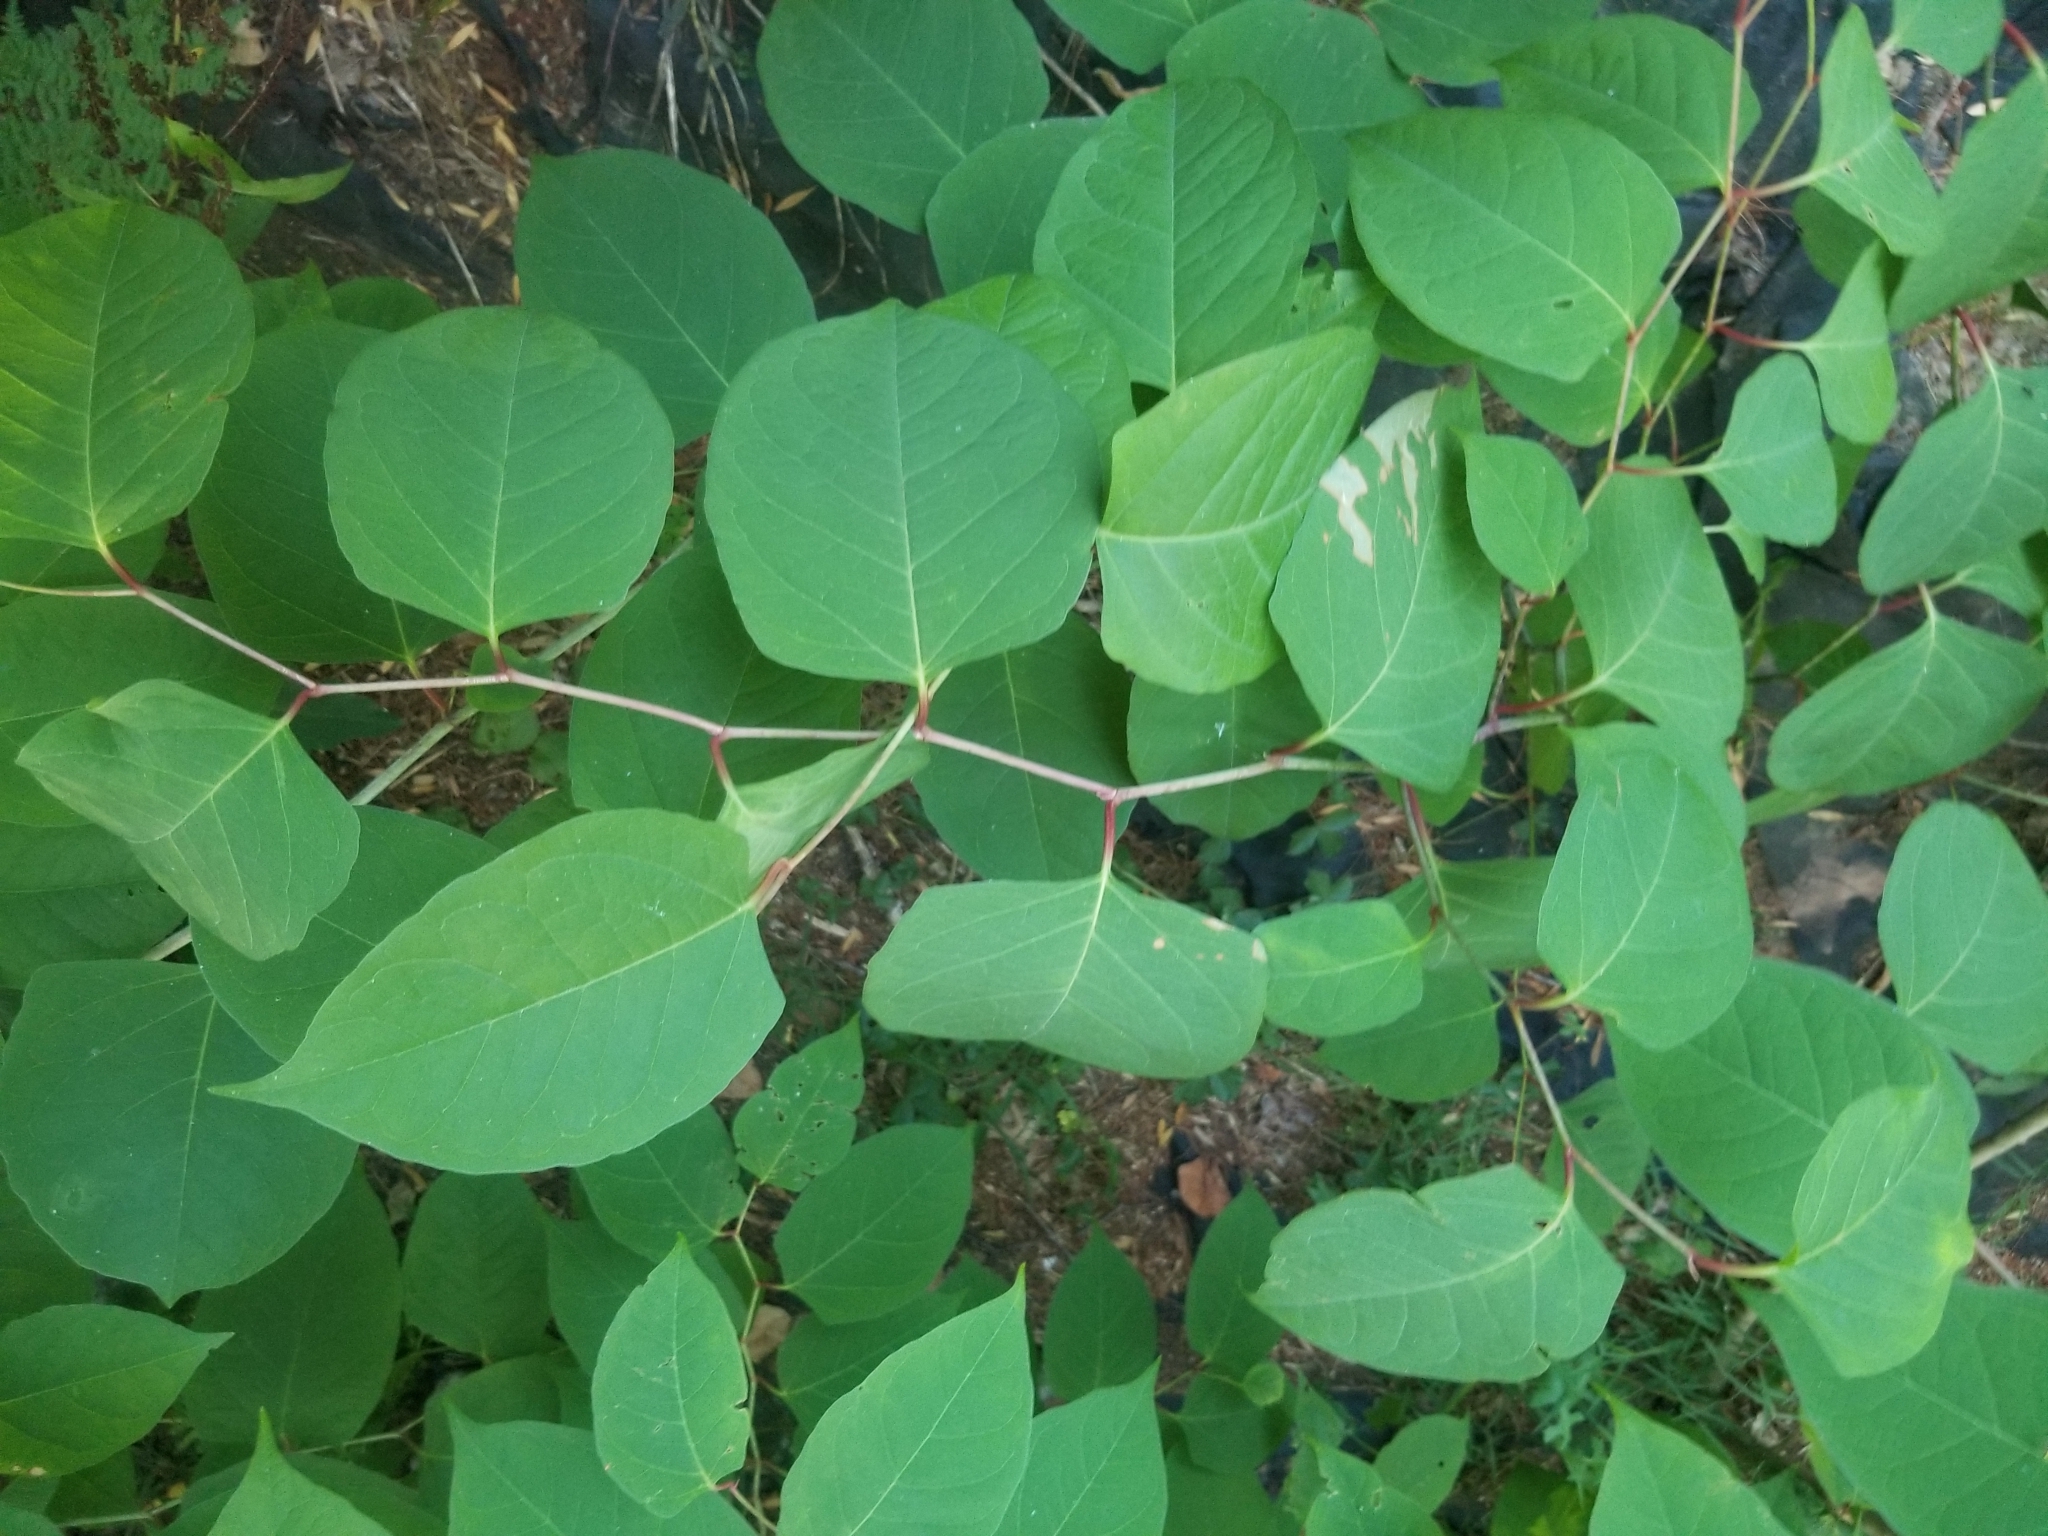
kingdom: Plantae
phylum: Tracheophyta
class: Magnoliopsida
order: Caryophyllales
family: Polygonaceae
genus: Reynoutria
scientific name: Reynoutria japonica
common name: Japanese knotweed
